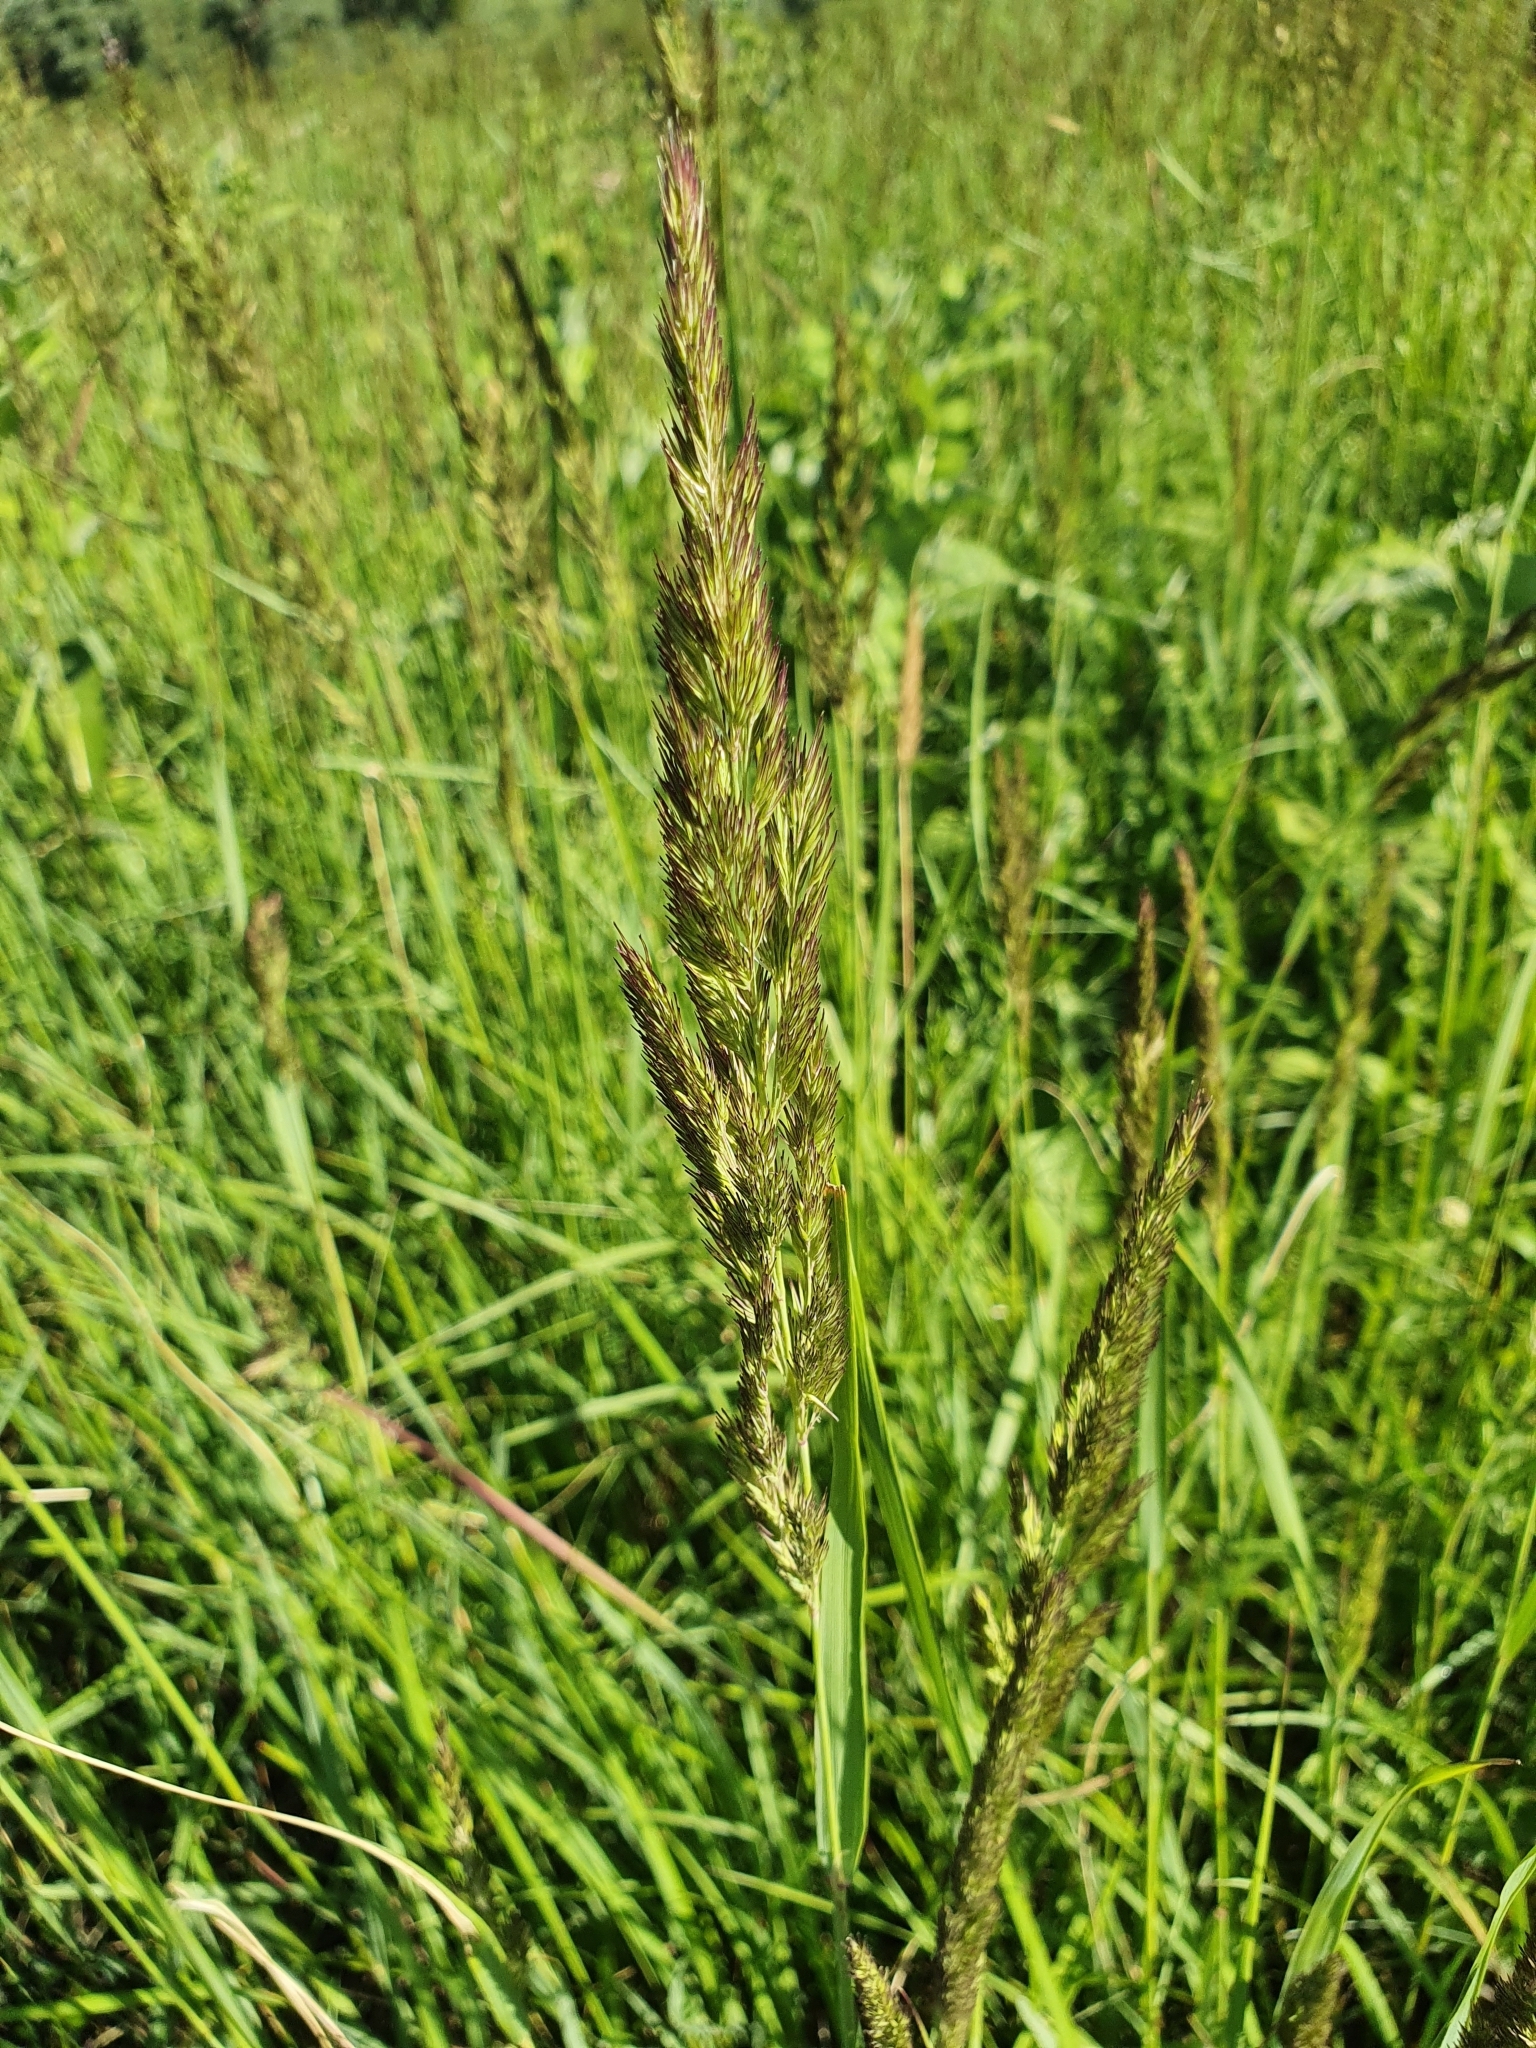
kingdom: Plantae
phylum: Tracheophyta
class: Liliopsida
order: Poales
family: Poaceae
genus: Calamagrostis
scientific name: Calamagrostis epigejos
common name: Wood small-reed
